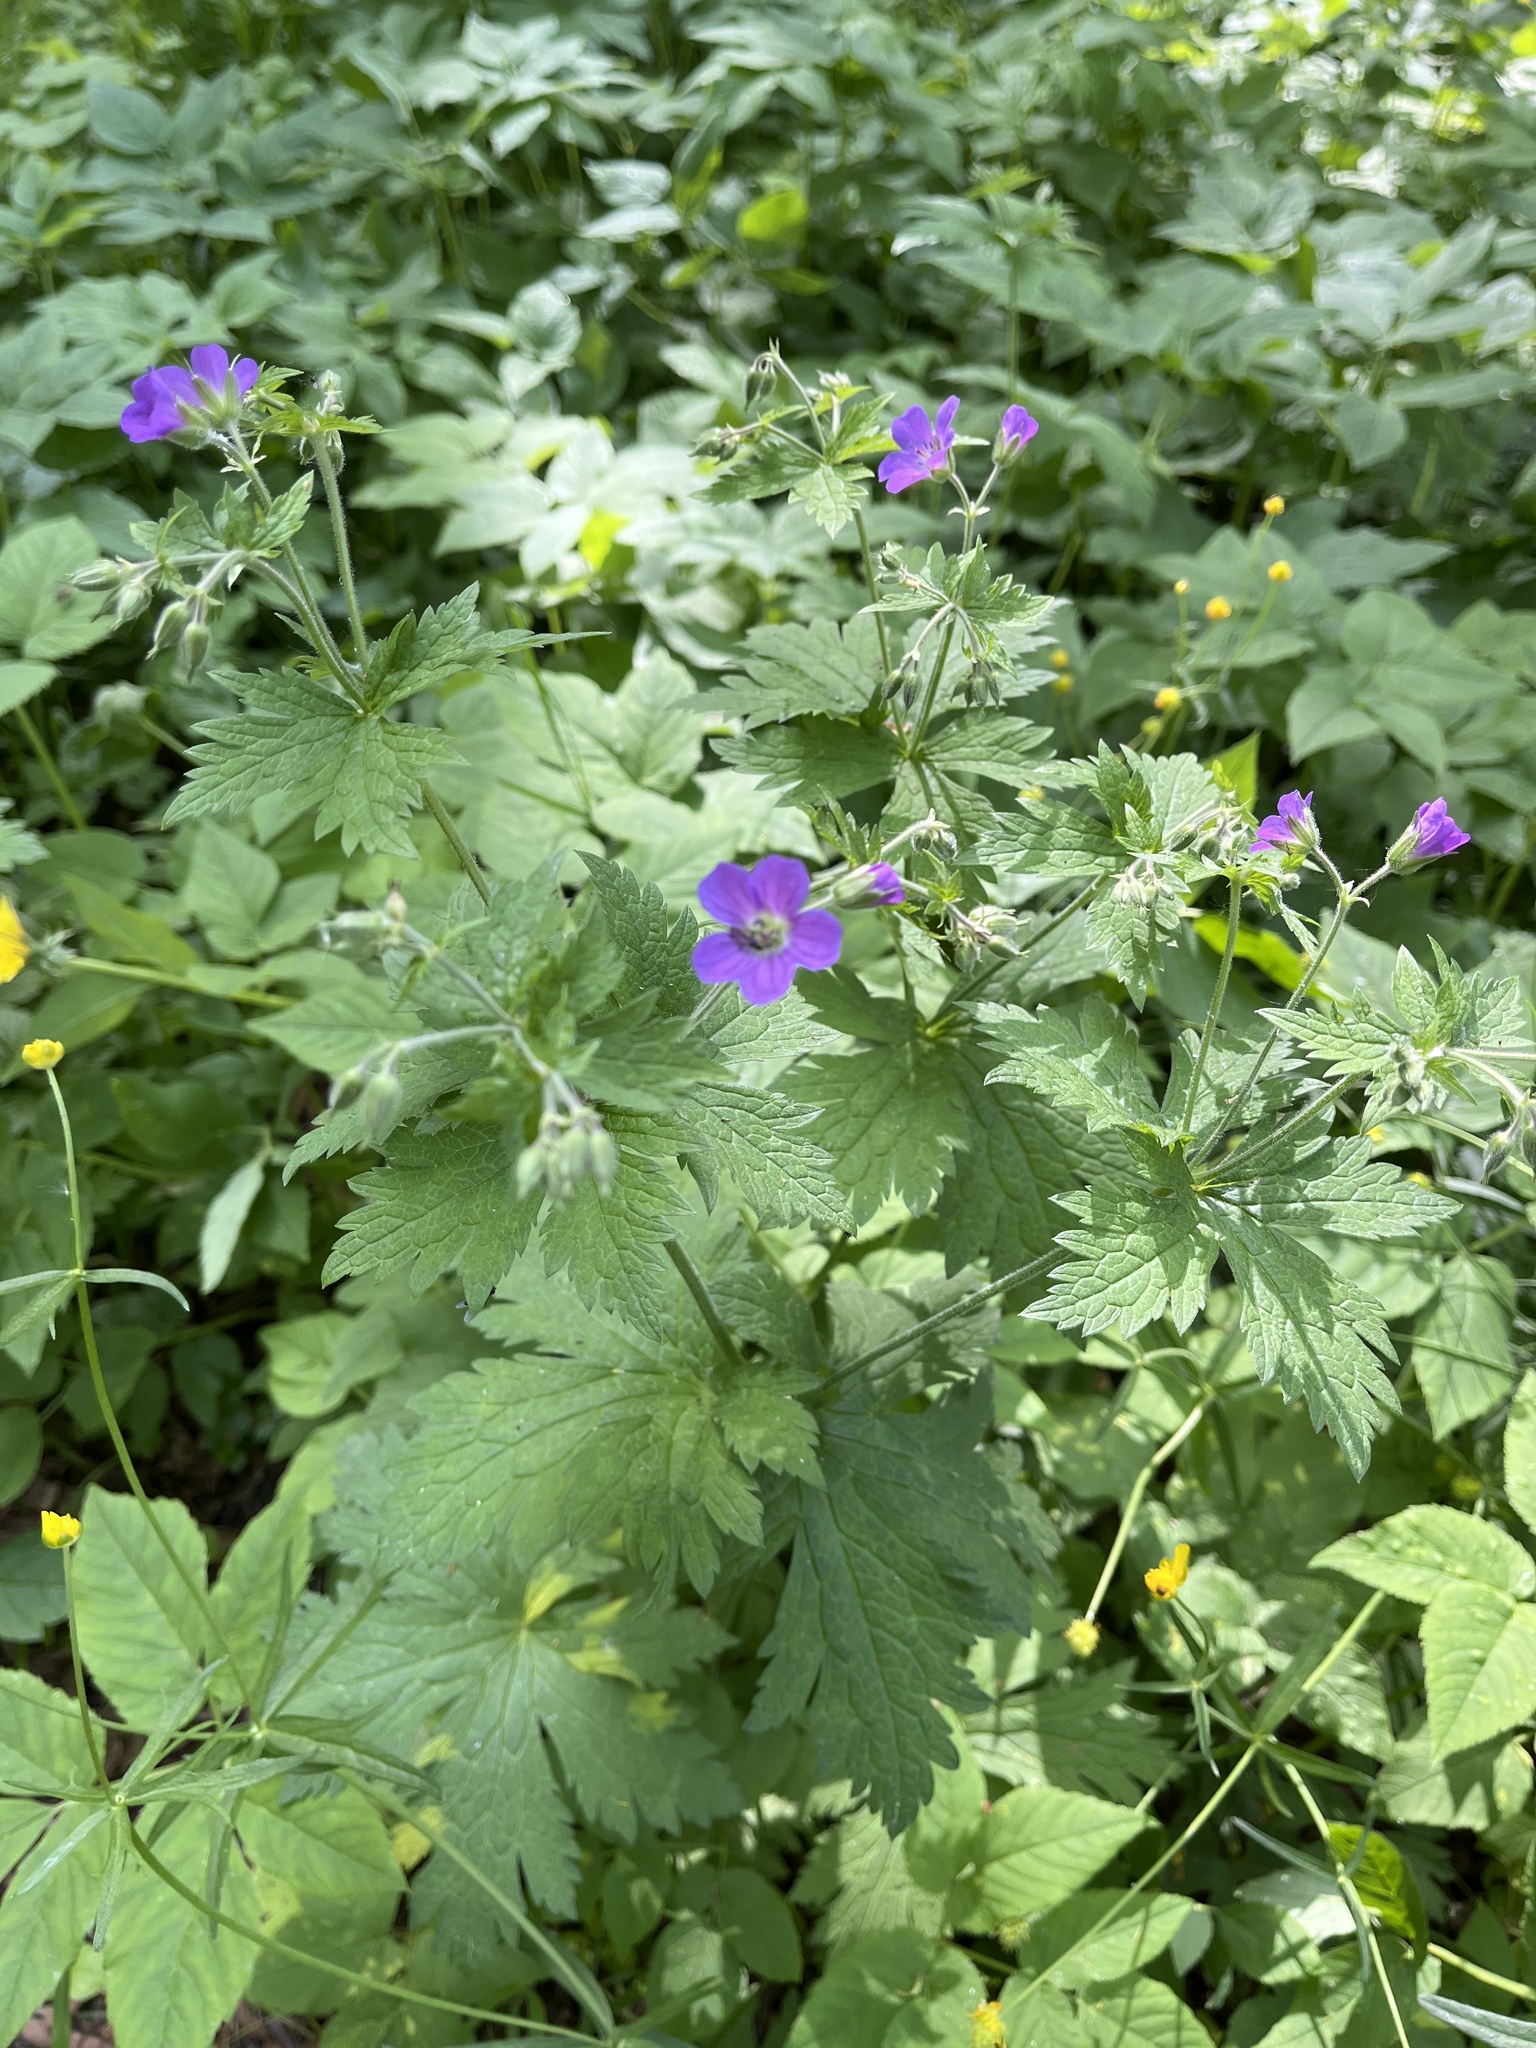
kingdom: Plantae
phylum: Tracheophyta
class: Magnoliopsida
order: Geraniales
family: Geraniaceae
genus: Geranium
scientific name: Geranium sylvaticum
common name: Wood crane's-bill
